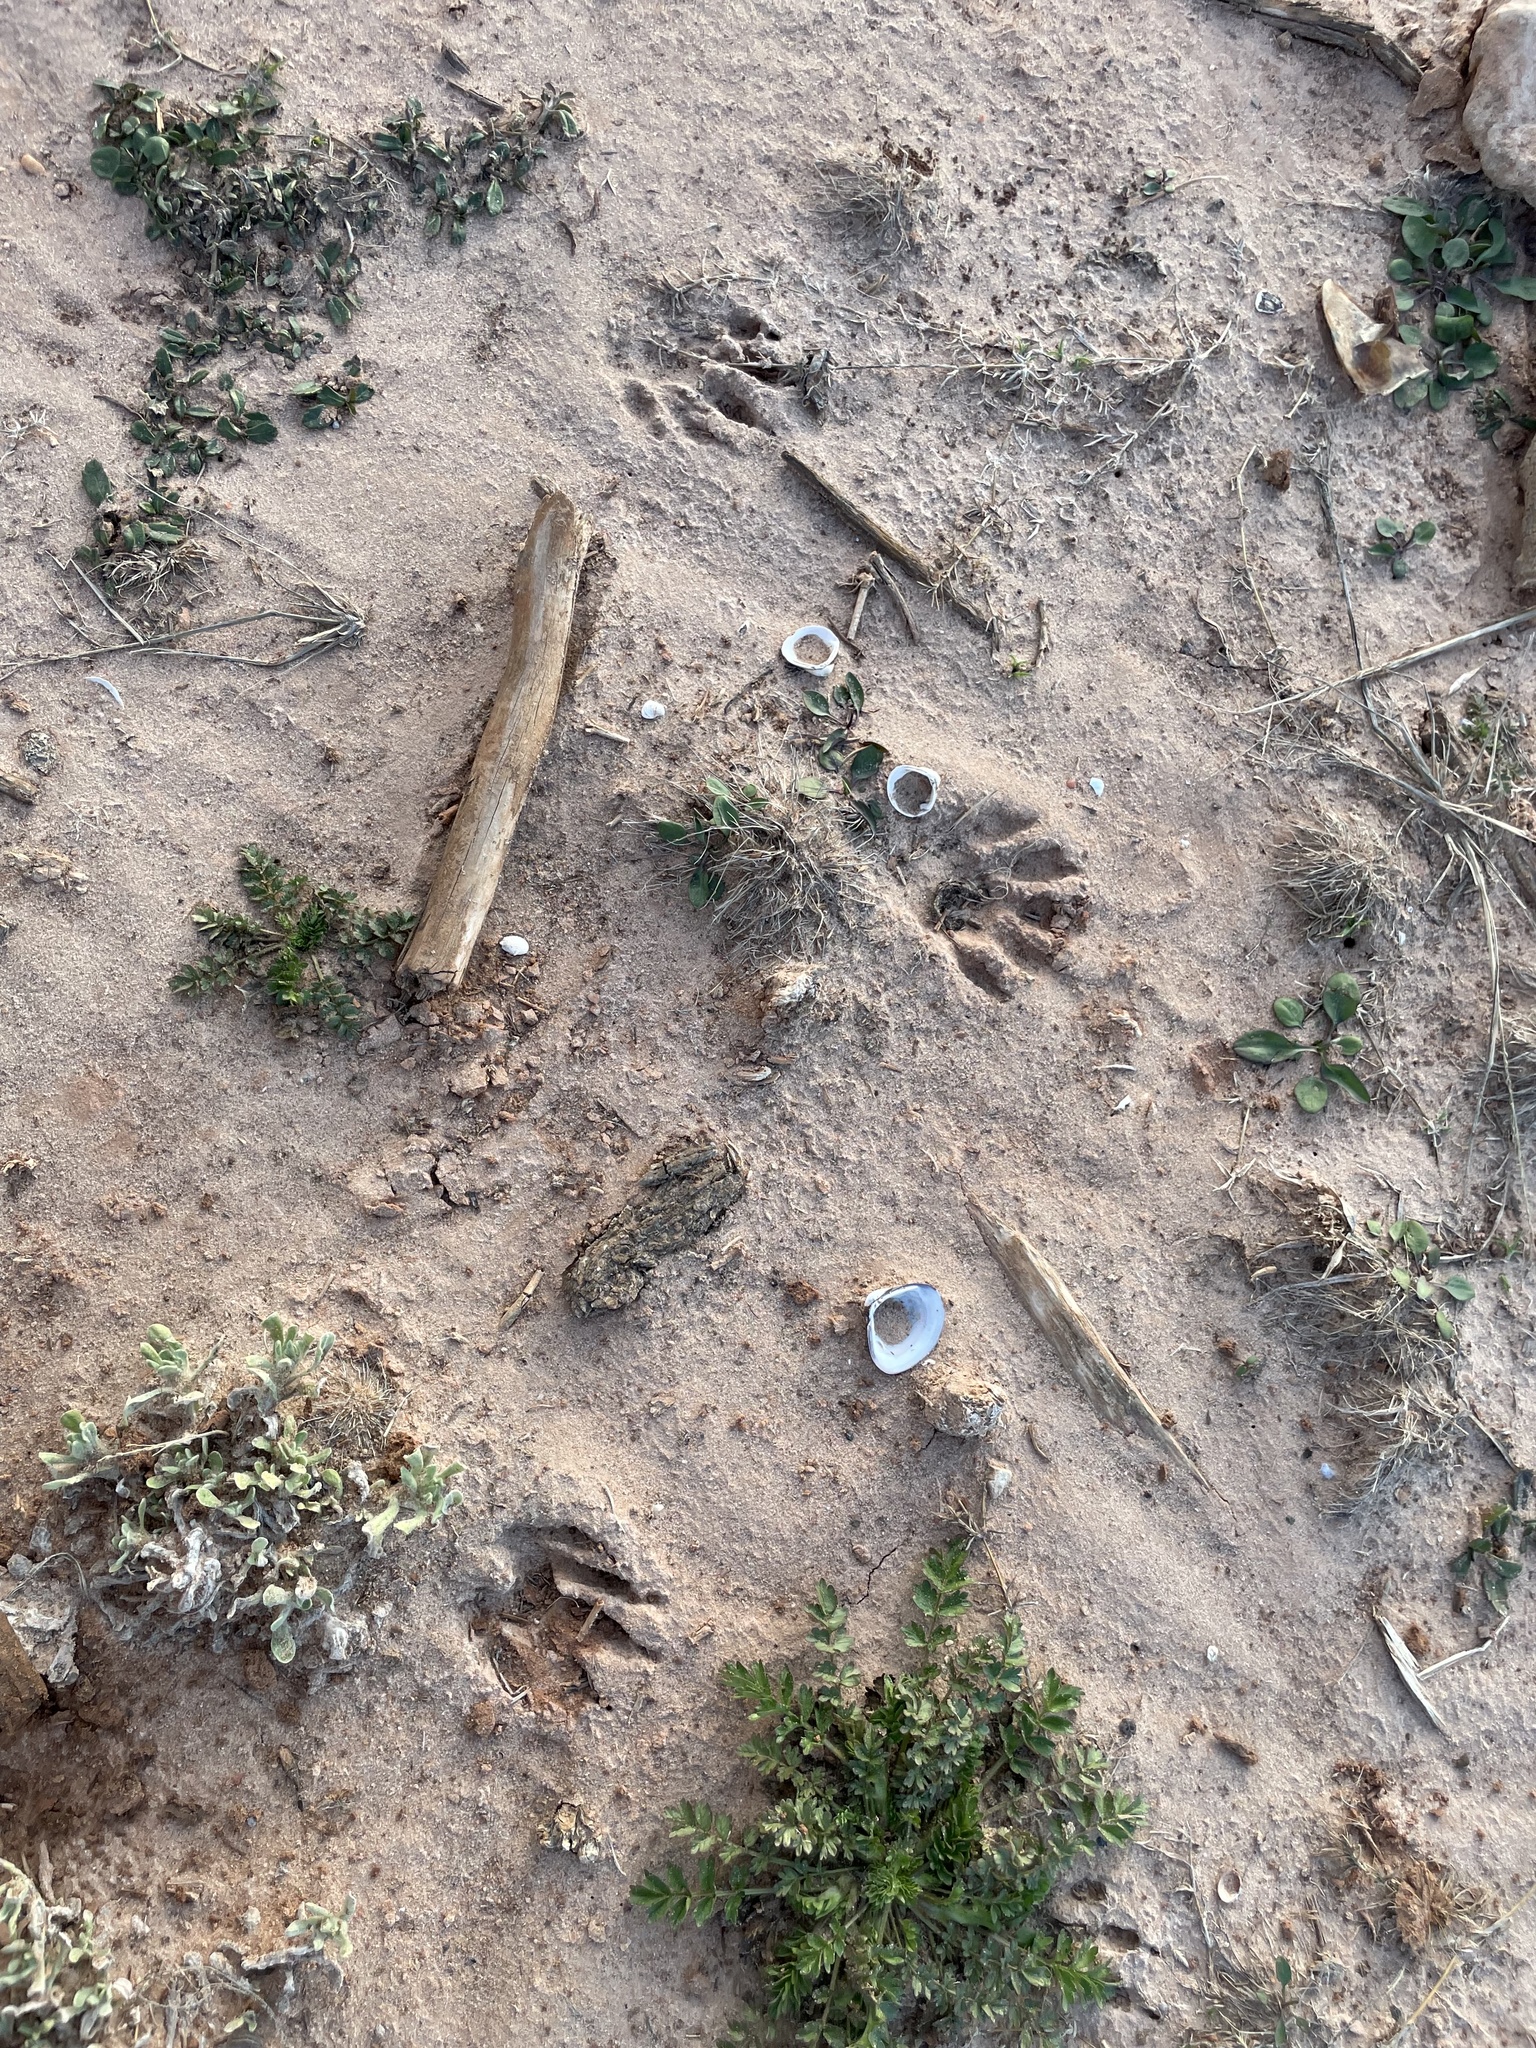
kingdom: Animalia
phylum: Chordata
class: Mammalia
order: Carnivora
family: Procyonidae
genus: Procyon
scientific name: Procyon lotor
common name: Raccoon
